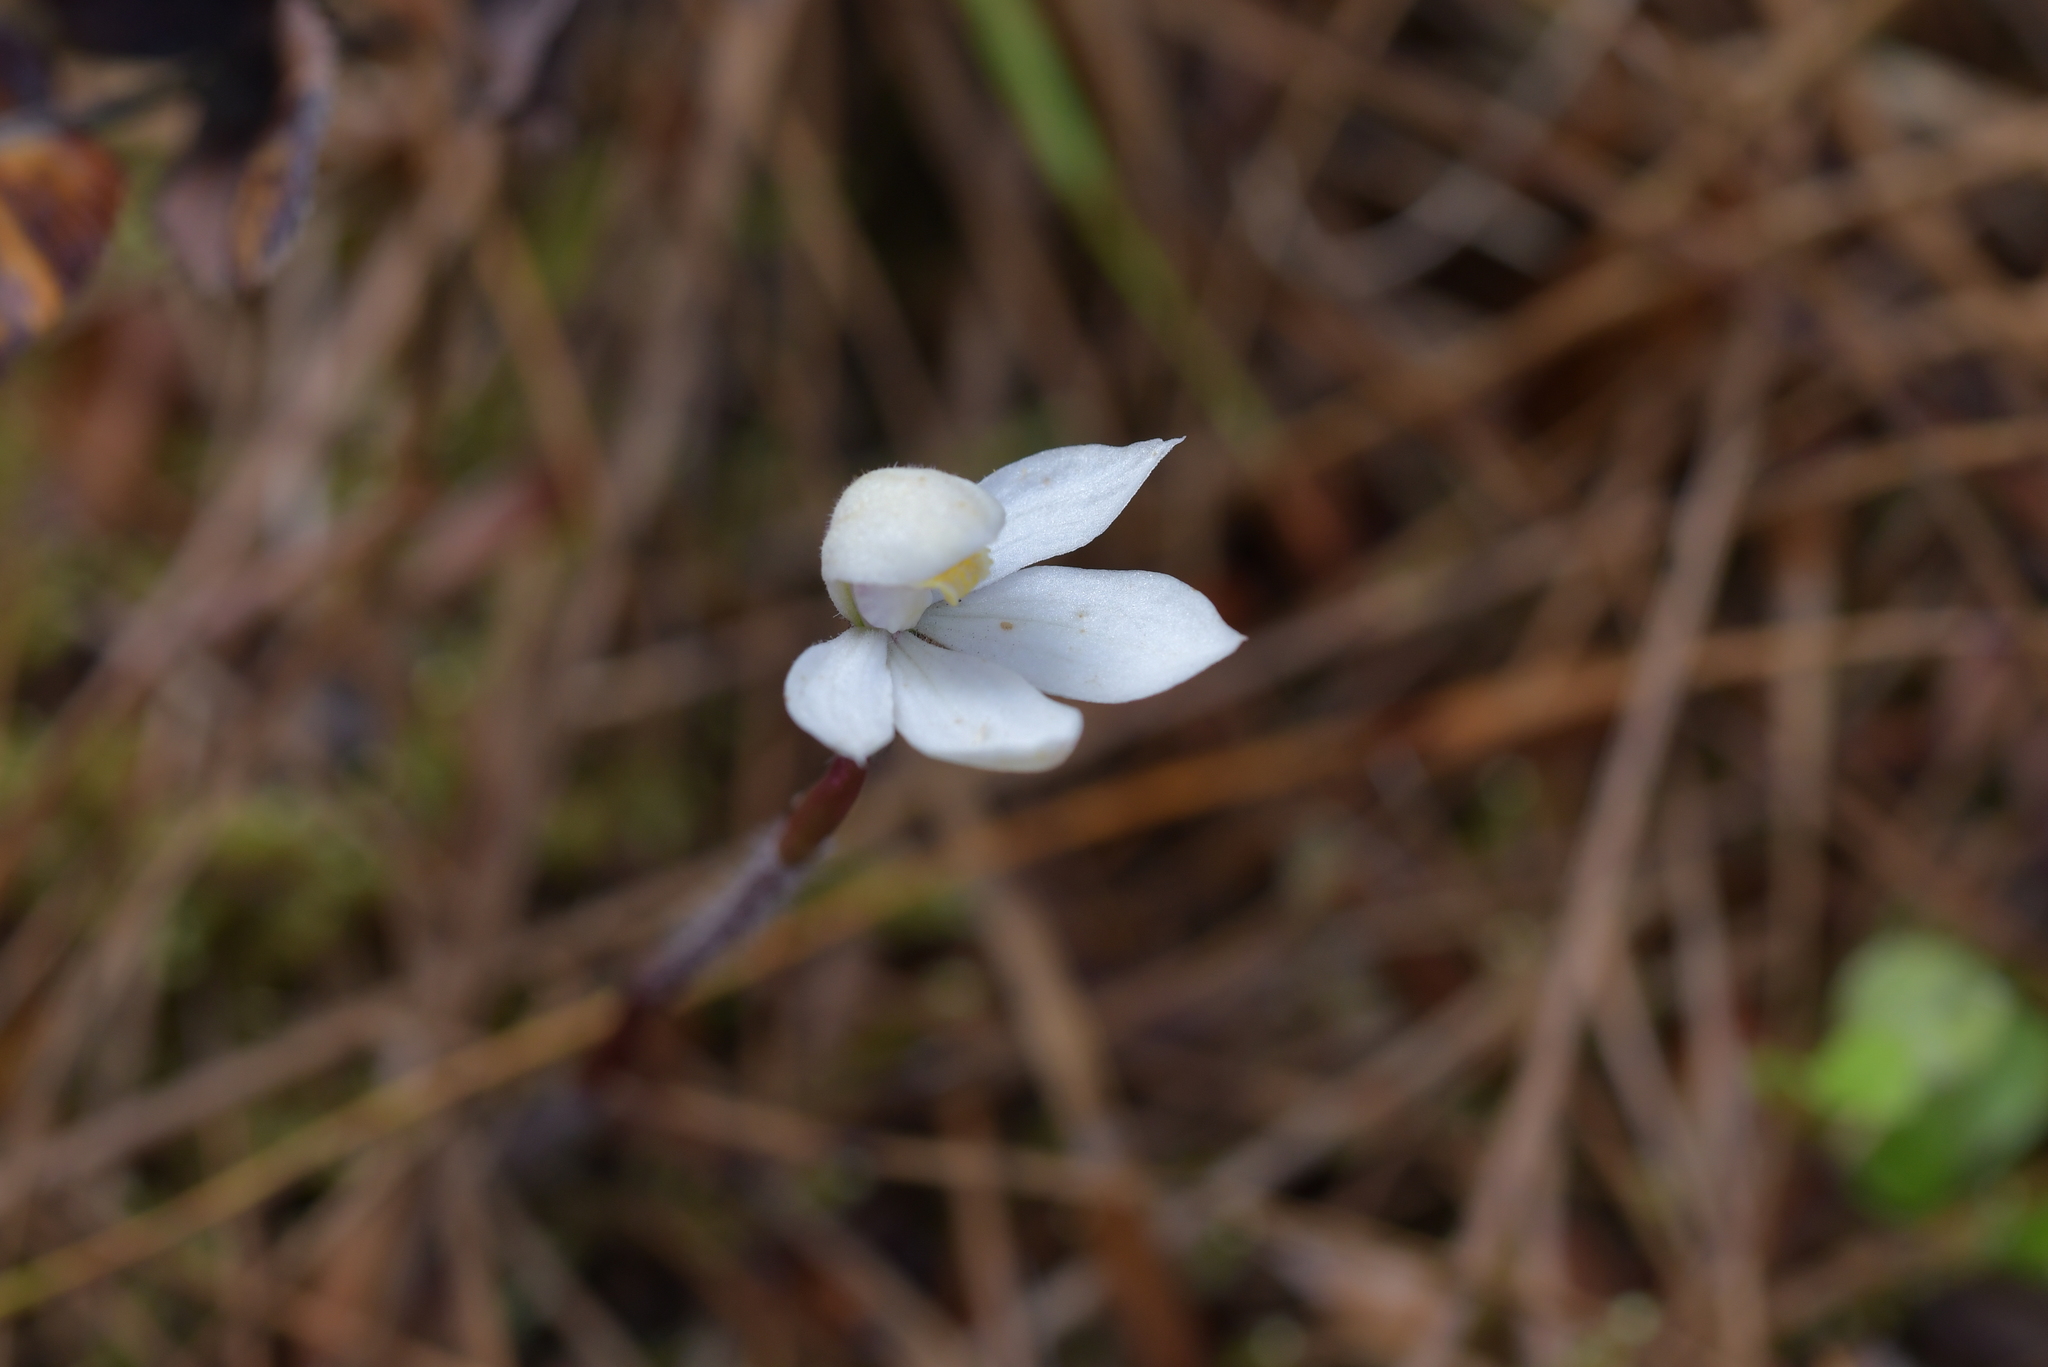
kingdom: Plantae
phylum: Tracheophyta
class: Liliopsida
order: Asparagales
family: Orchidaceae
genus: Caladenia
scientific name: Caladenia lyallii
